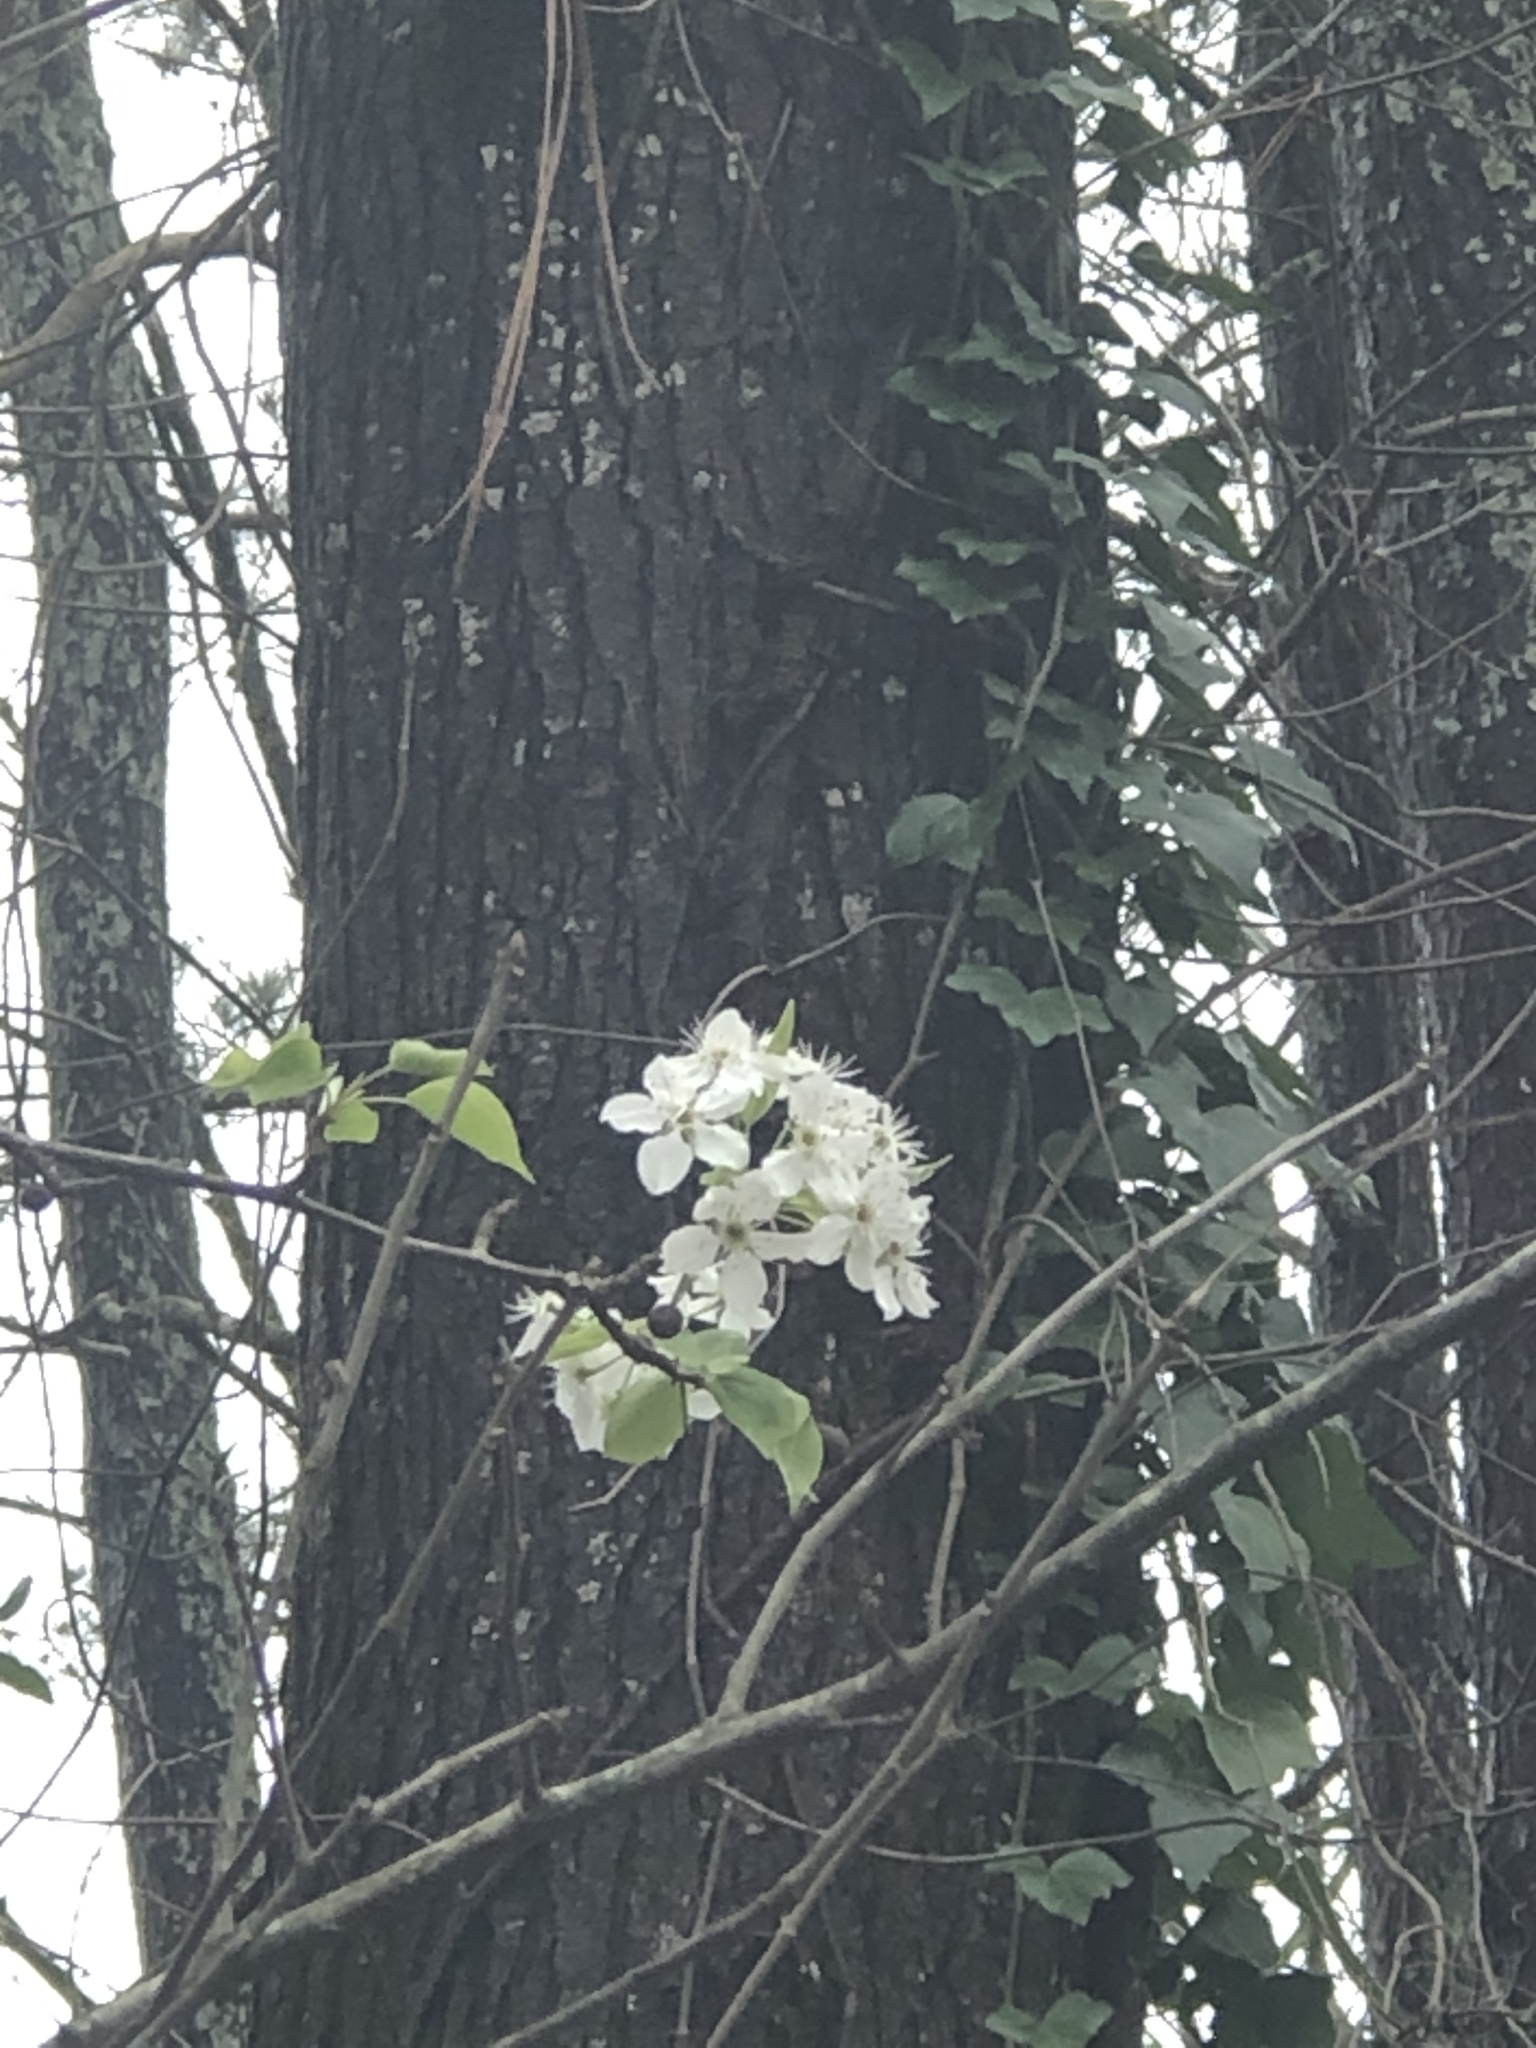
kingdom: Plantae
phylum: Tracheophyta
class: Magnoliopsida
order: Rosales
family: Rosaceae
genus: Pyrus
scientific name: Pyrus calleryana
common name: Callery pear
